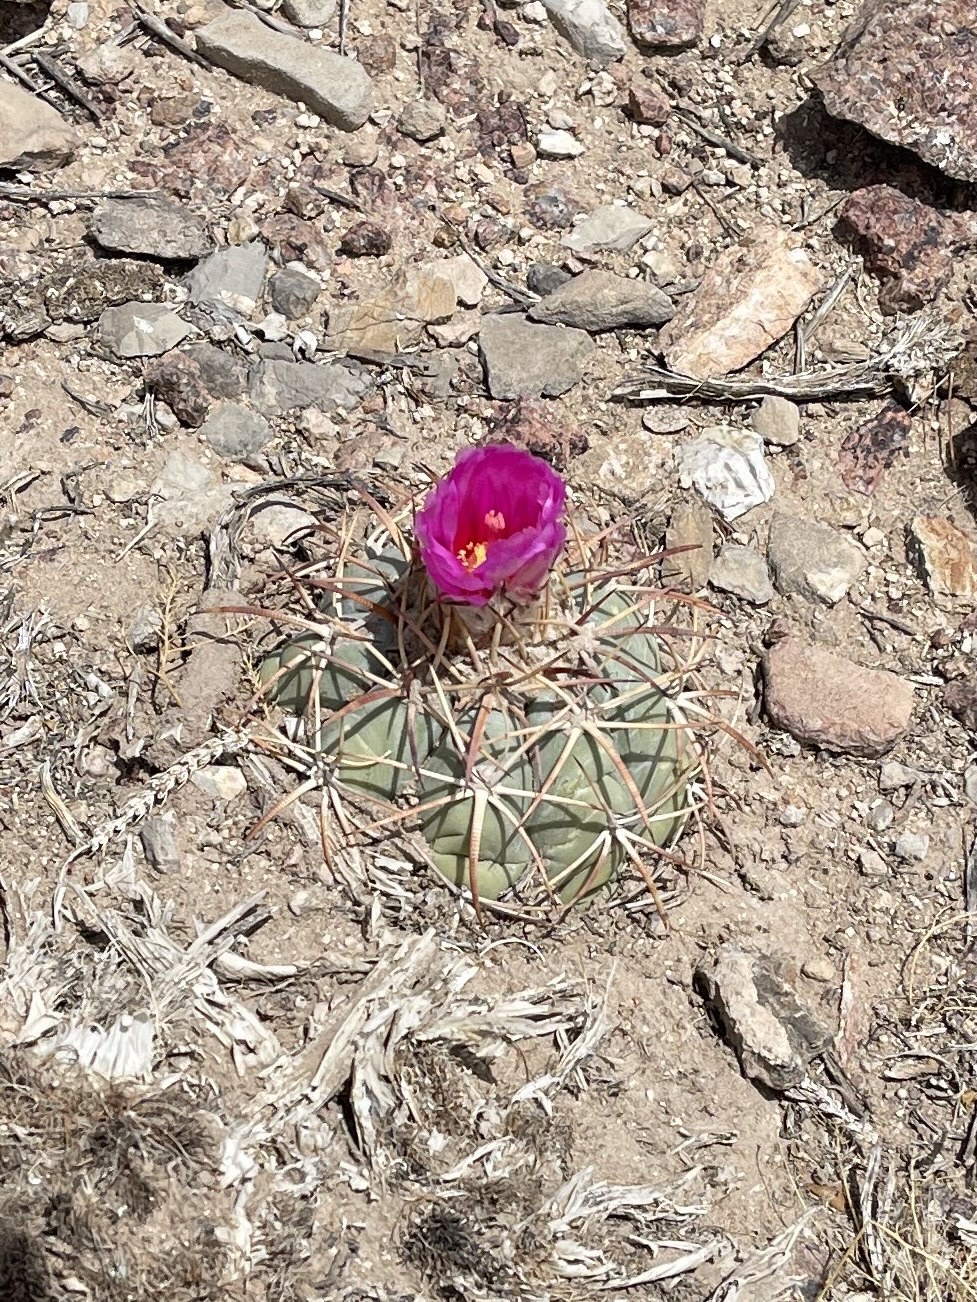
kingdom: Plantae
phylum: Tracheophyta
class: Magnoliopsida
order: Caryophyllales
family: Cactaceae
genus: Echinocactus
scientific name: Echinocactus horizonthalonius
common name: Devilshead
